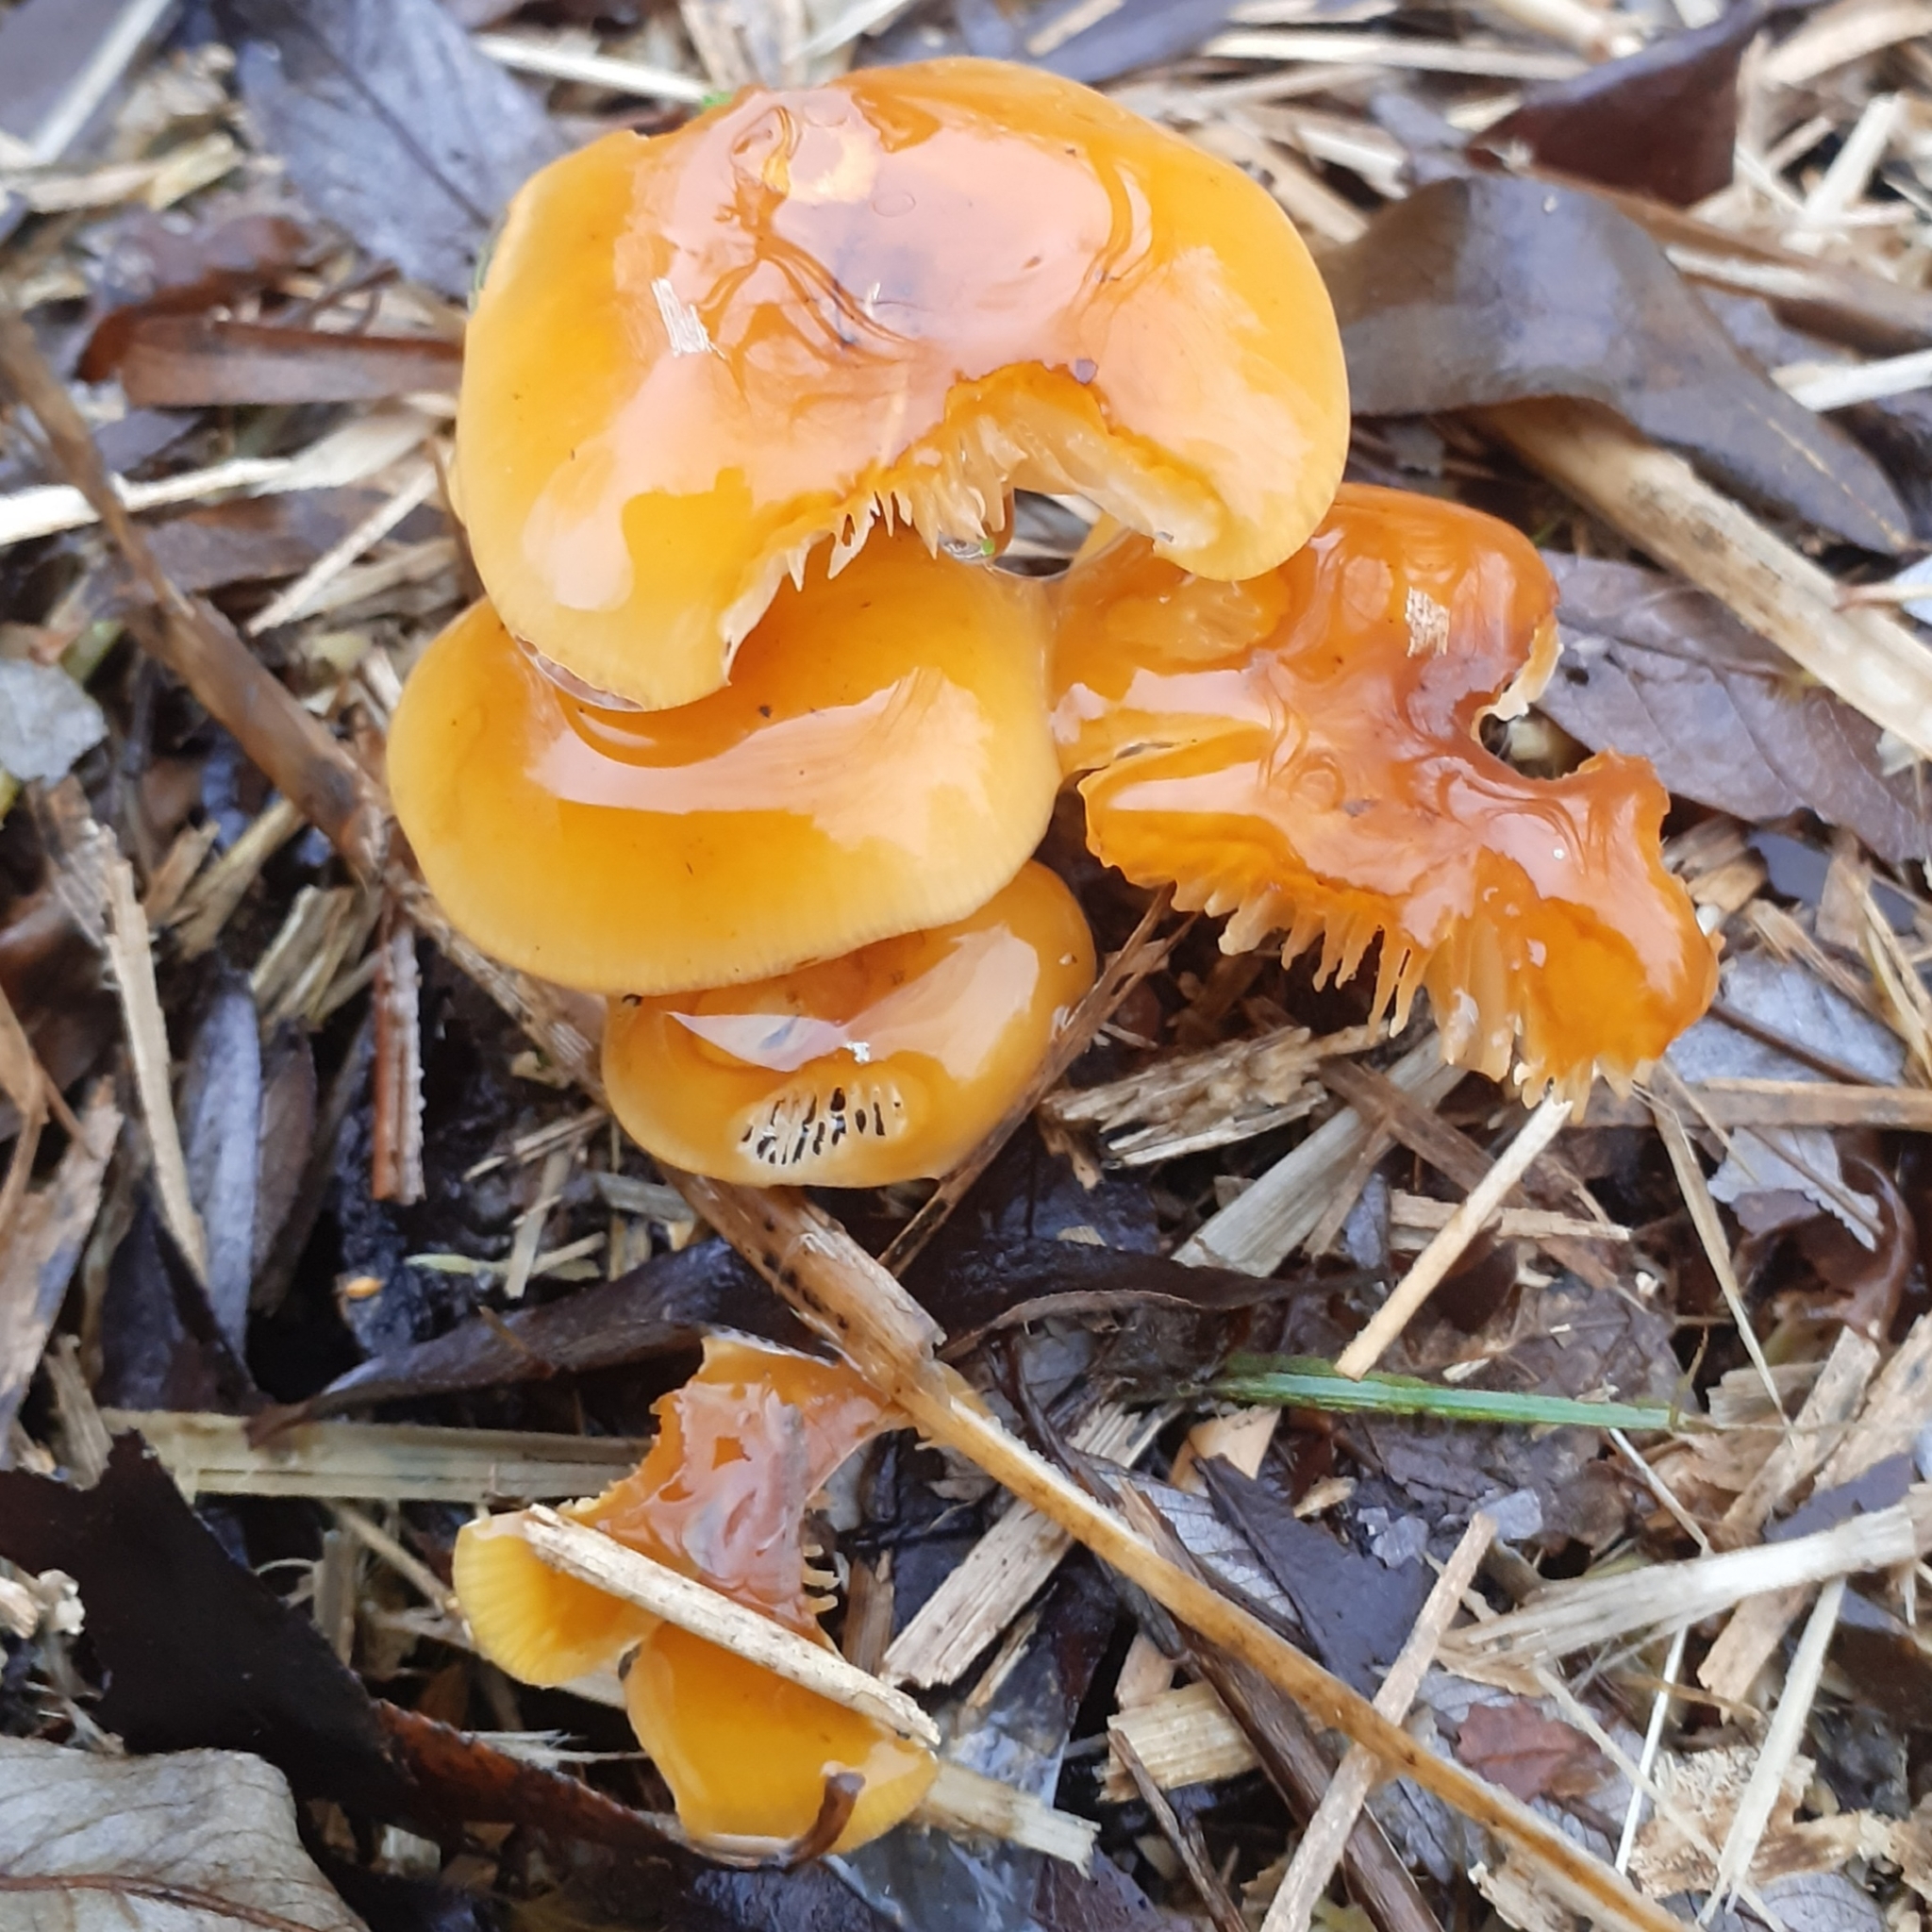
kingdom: Fungi
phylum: Basidiomycota
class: Agaricomycetes
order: Agaricales
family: Physalacriaceae
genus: Flammulina
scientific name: Flammulina
